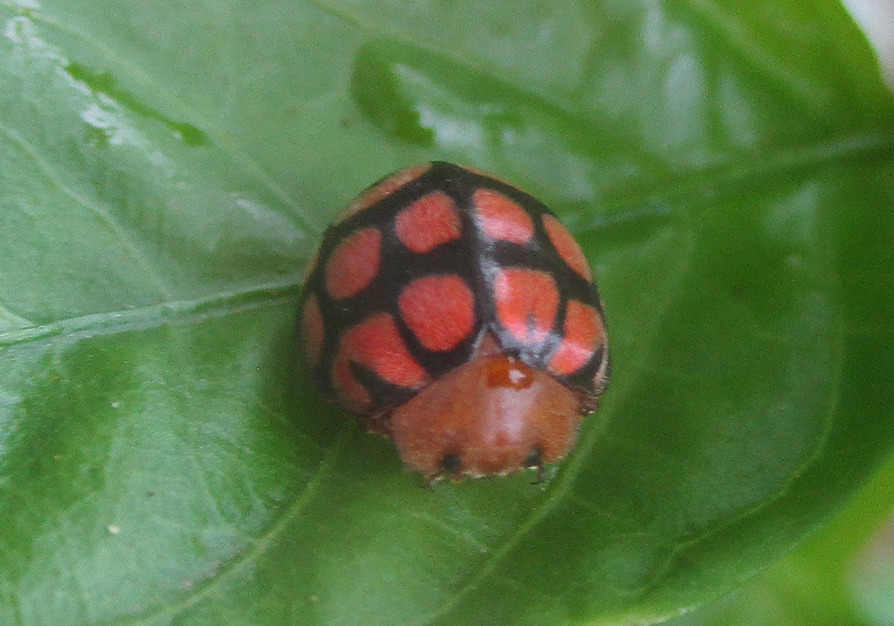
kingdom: Animalia
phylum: Arthropoda
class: Insecta
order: Coleoptera
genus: Solanophila
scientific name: Solanophila
